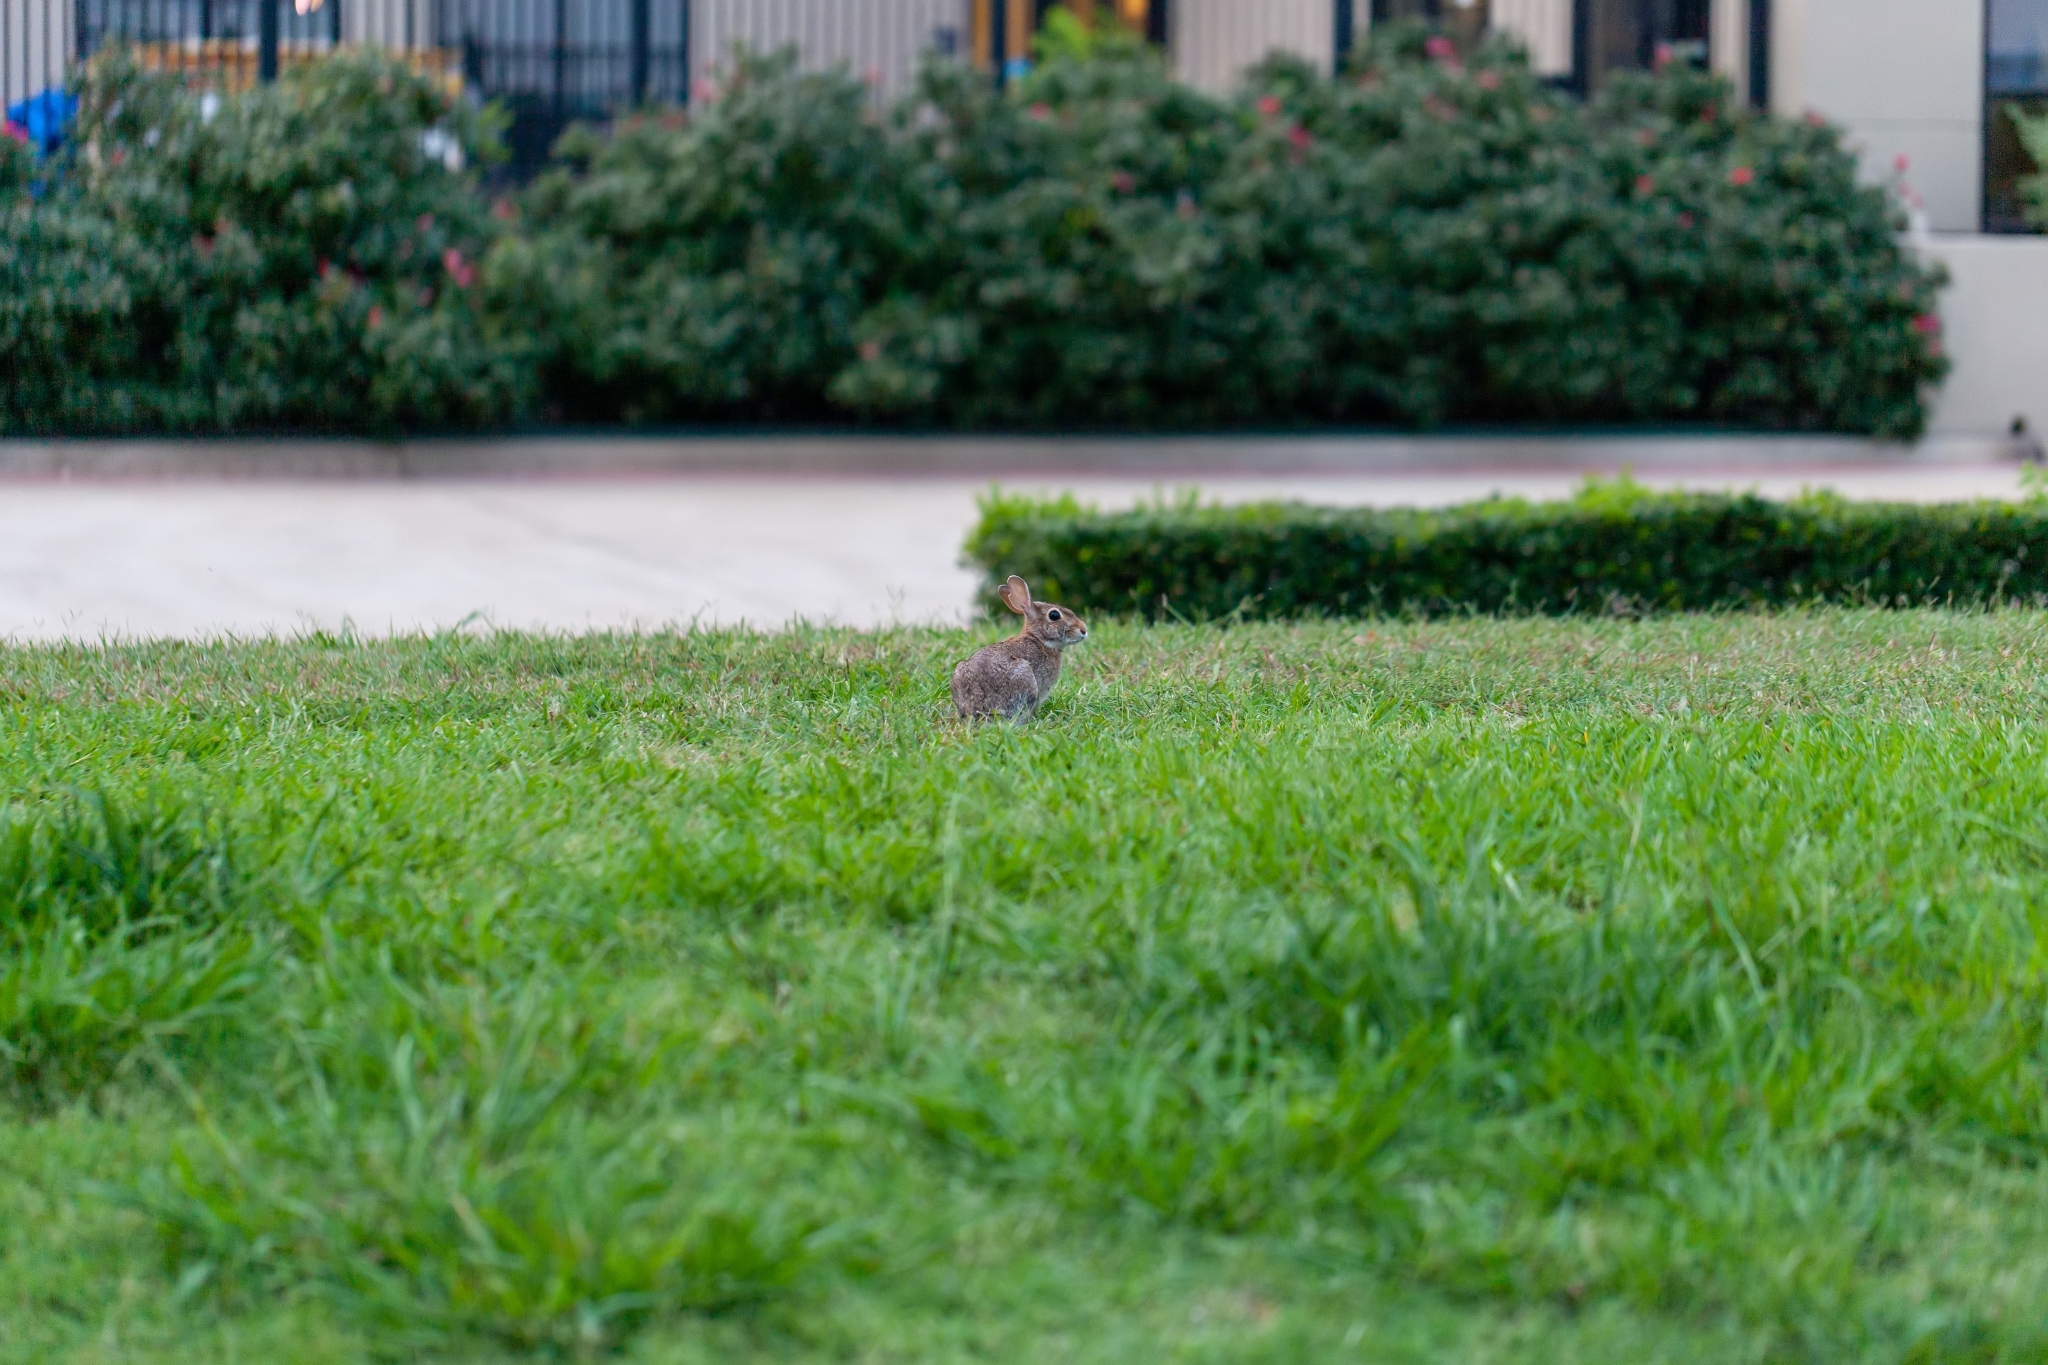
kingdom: Animalia
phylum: Chordata
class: Mammalia
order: Lagomorpha
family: Leporidae
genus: Sylvilagus
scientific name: Sylvilagus floridanus
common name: Eastern cottontail
